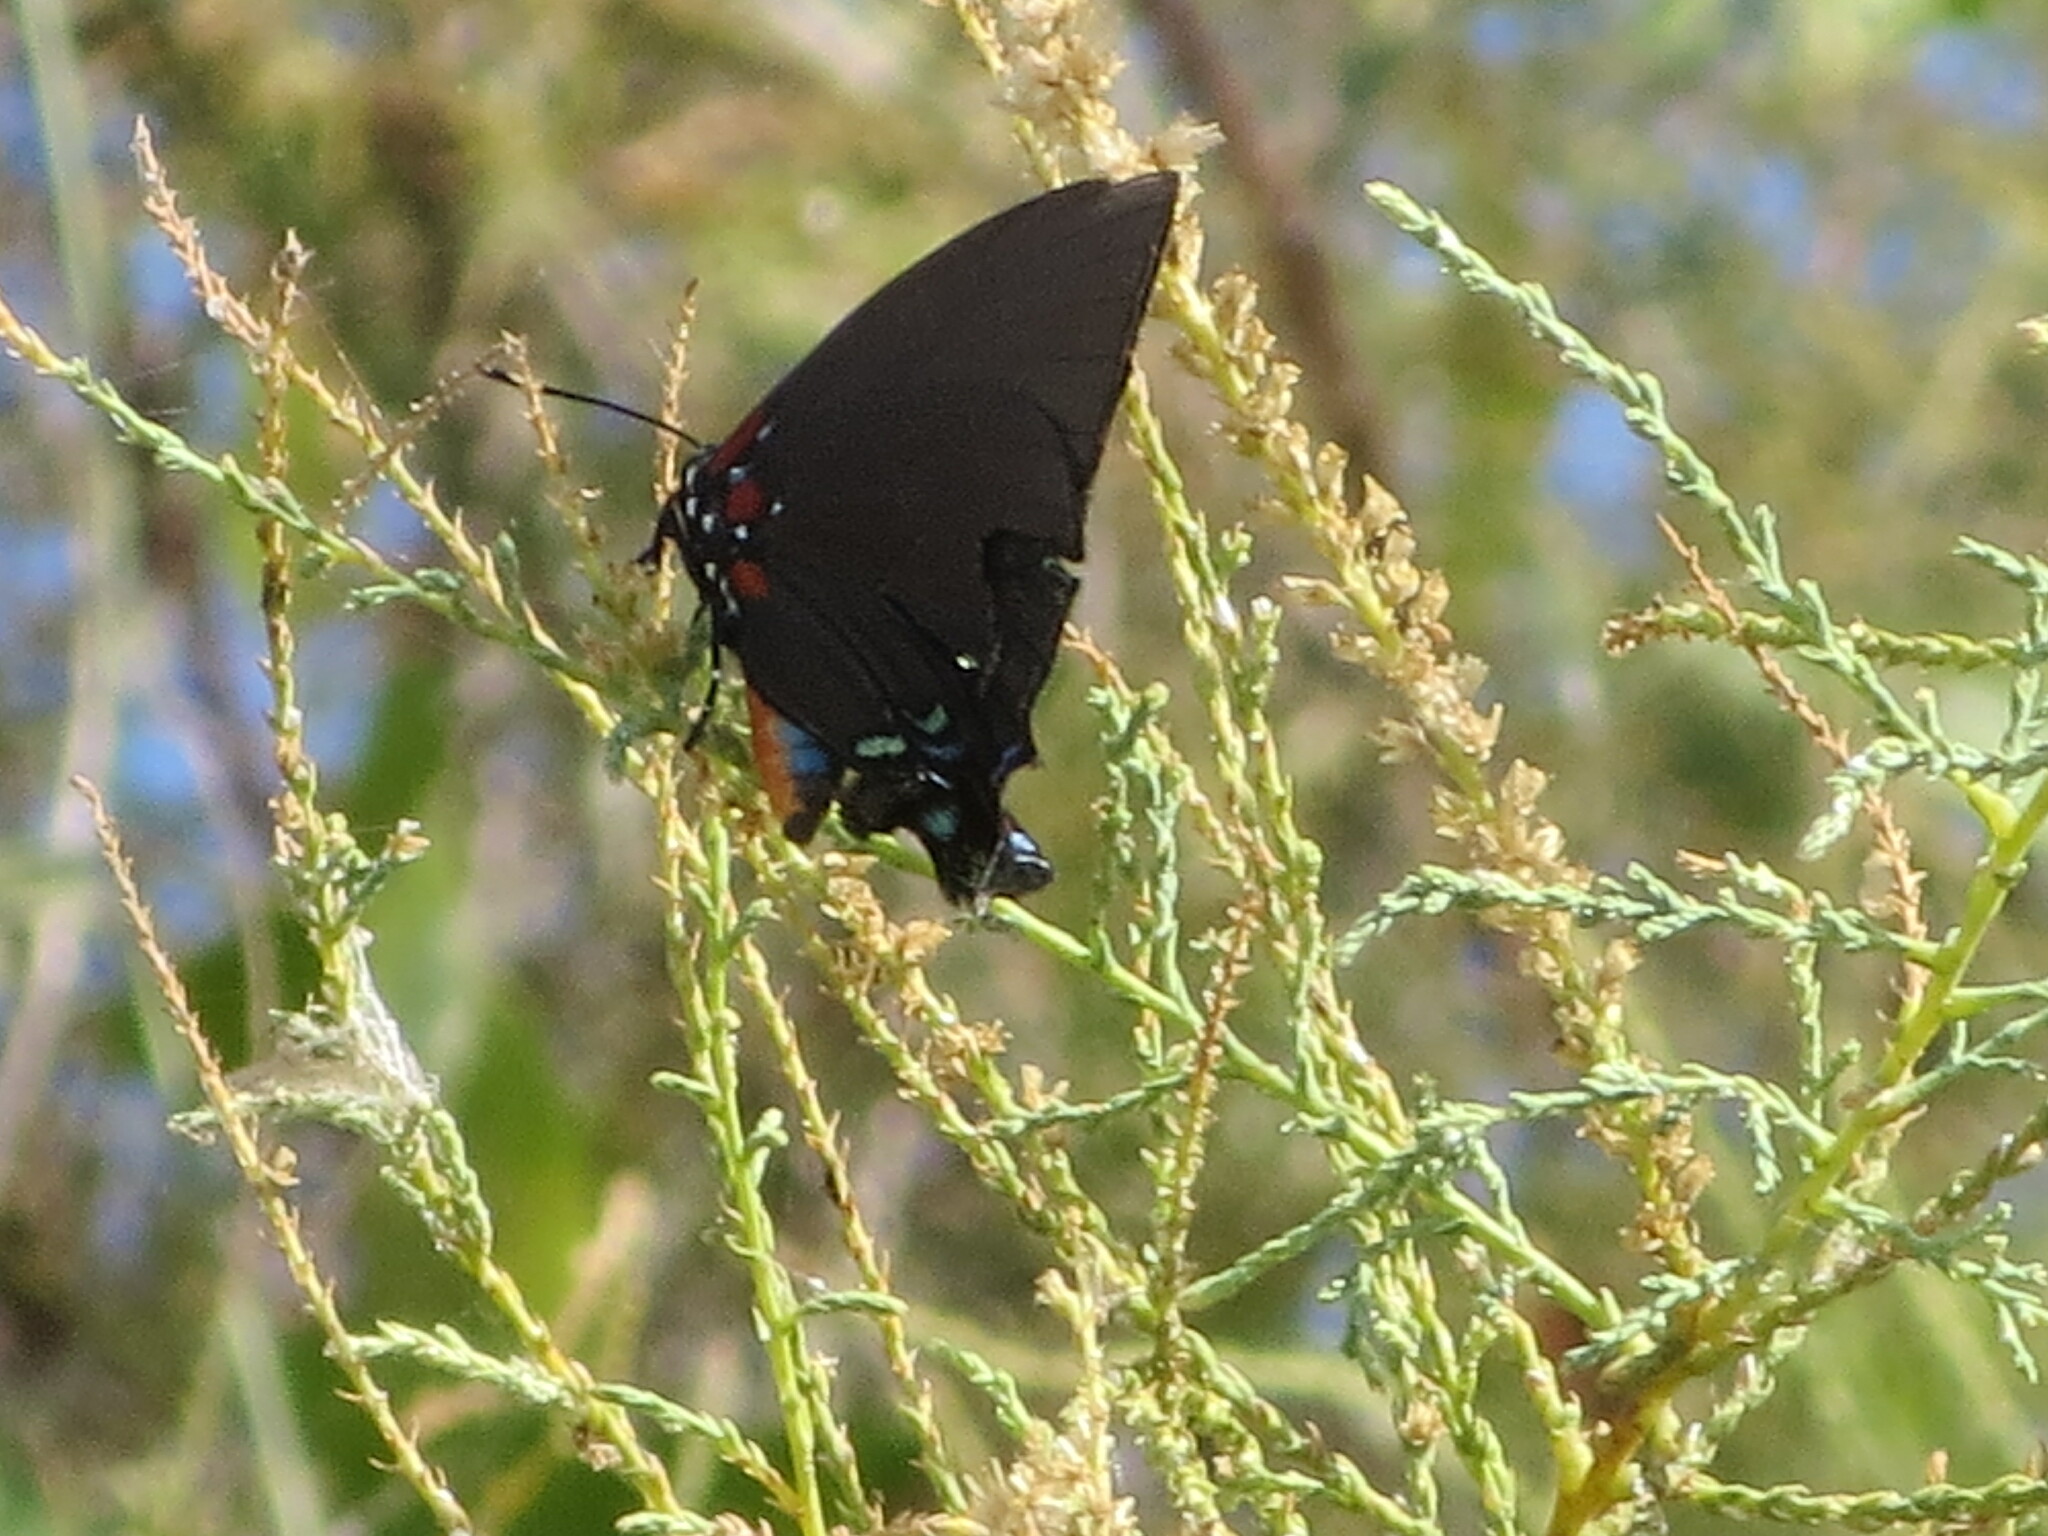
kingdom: Animalia
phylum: Arthropoda
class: Insecta
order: Lepidoptera
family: Lycaenidae
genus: Atlides
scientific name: Atlides halesus
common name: Great purple hairstreak
